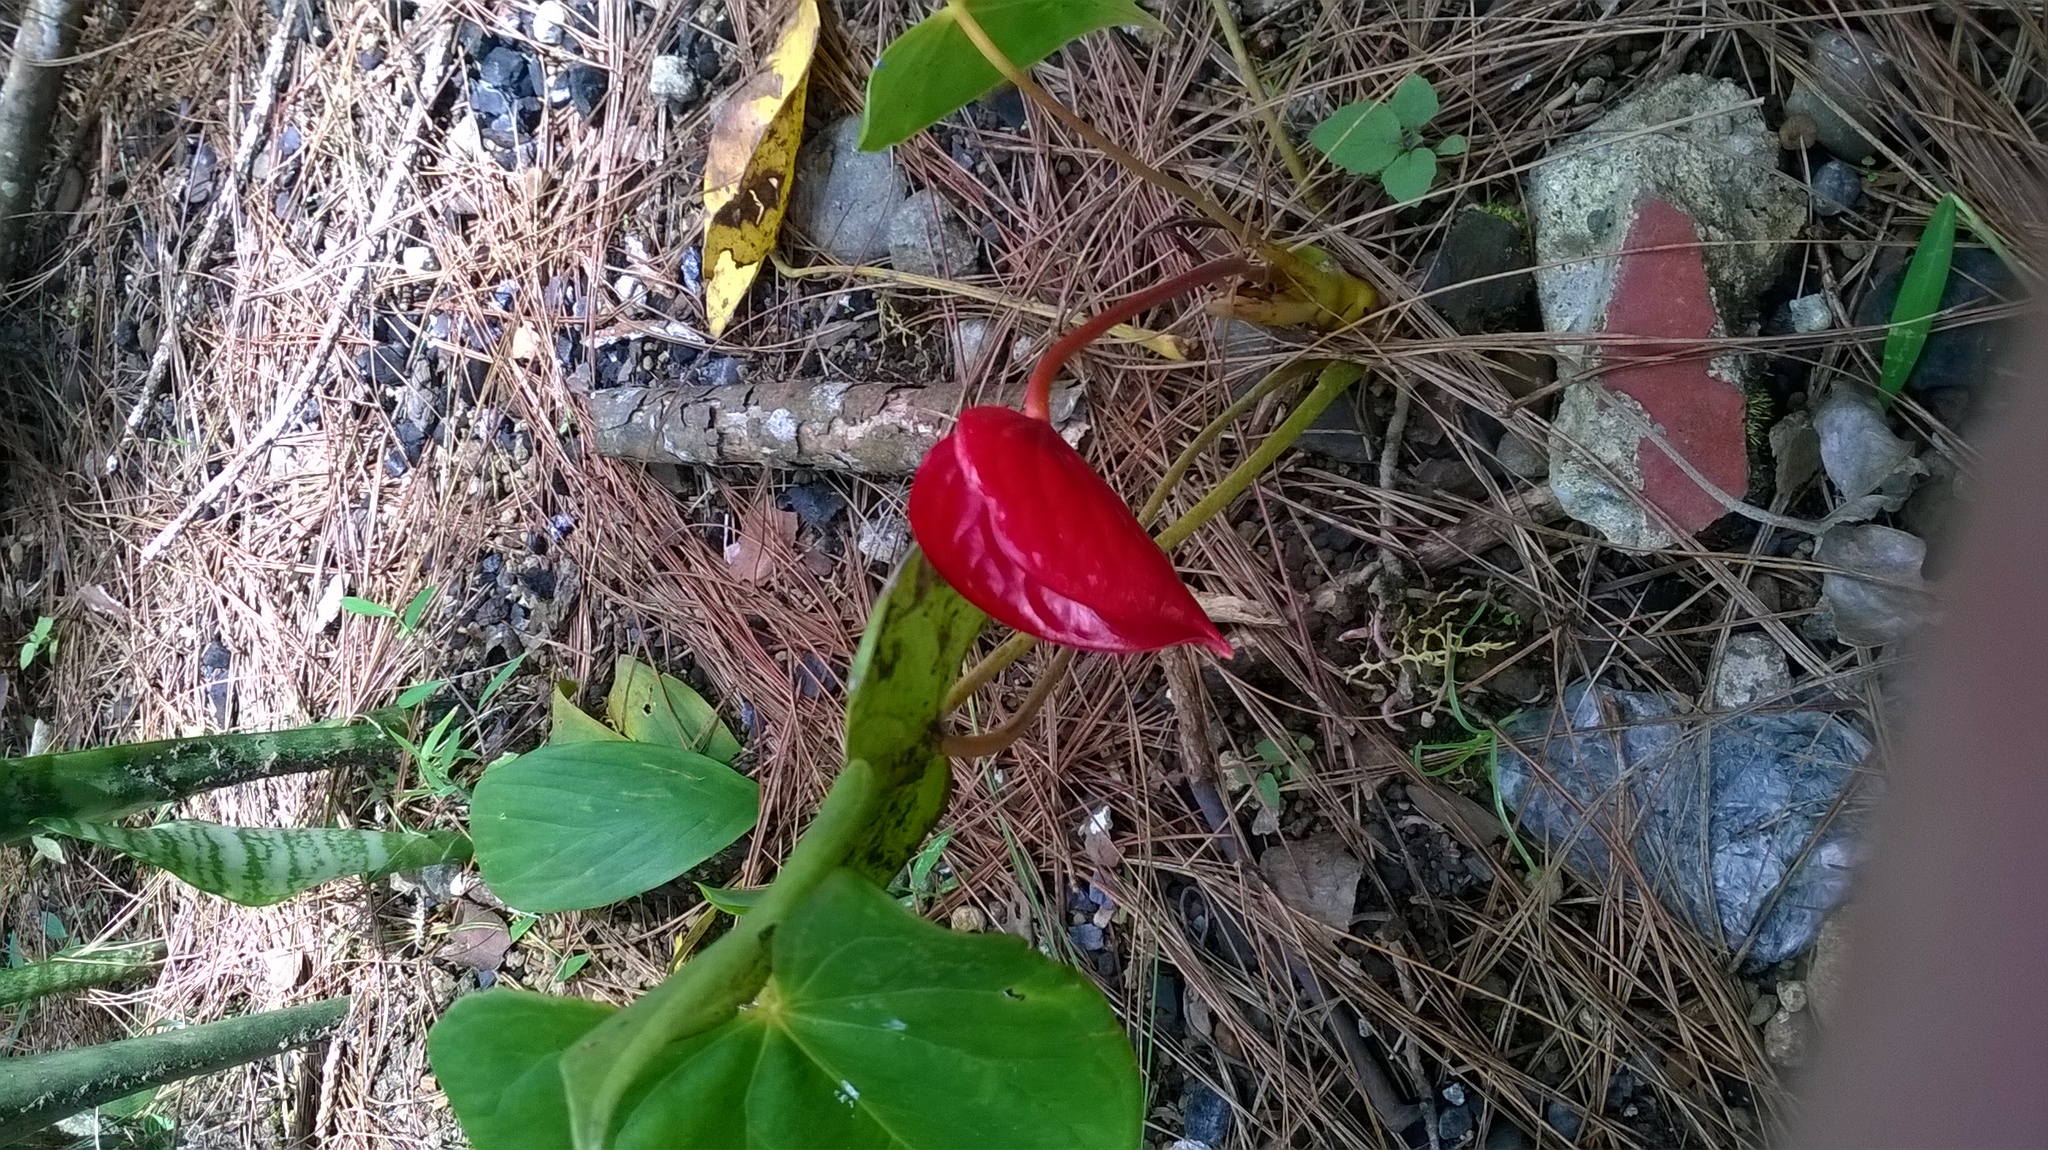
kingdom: Plantae
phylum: Tracheophyta
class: Liliopsida
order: Alismatales
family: Araceae
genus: Anthurium
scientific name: Anthurium andraeanum
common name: Flamingo-flower
